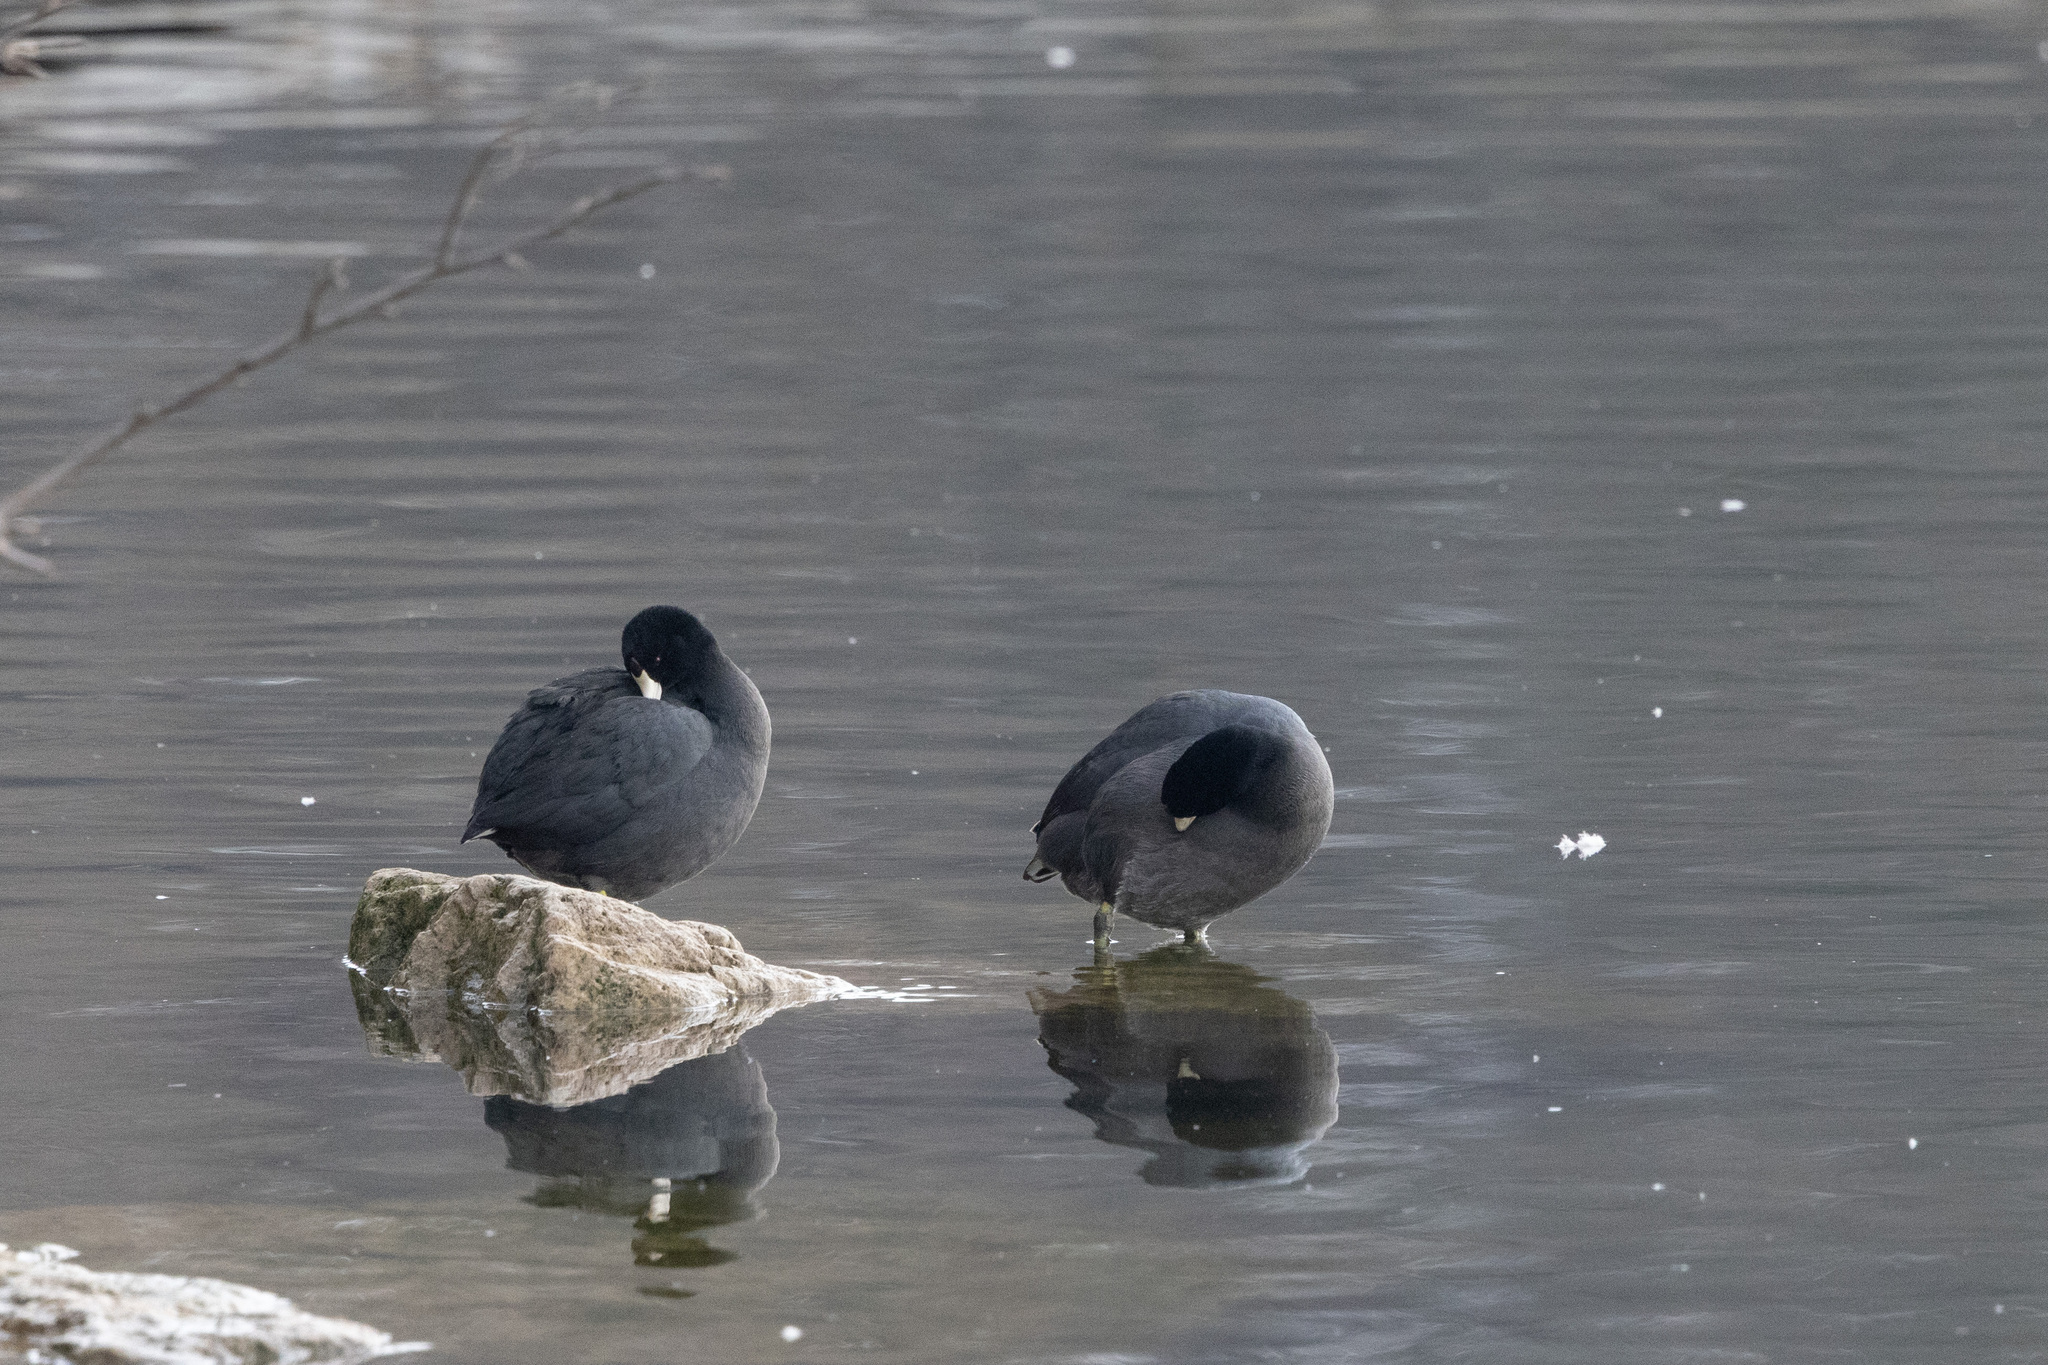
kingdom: Animalia
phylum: Chordata
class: Aves
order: Gruiformes
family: Rallidae
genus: Fulica
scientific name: Fulica americana
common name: American coot
